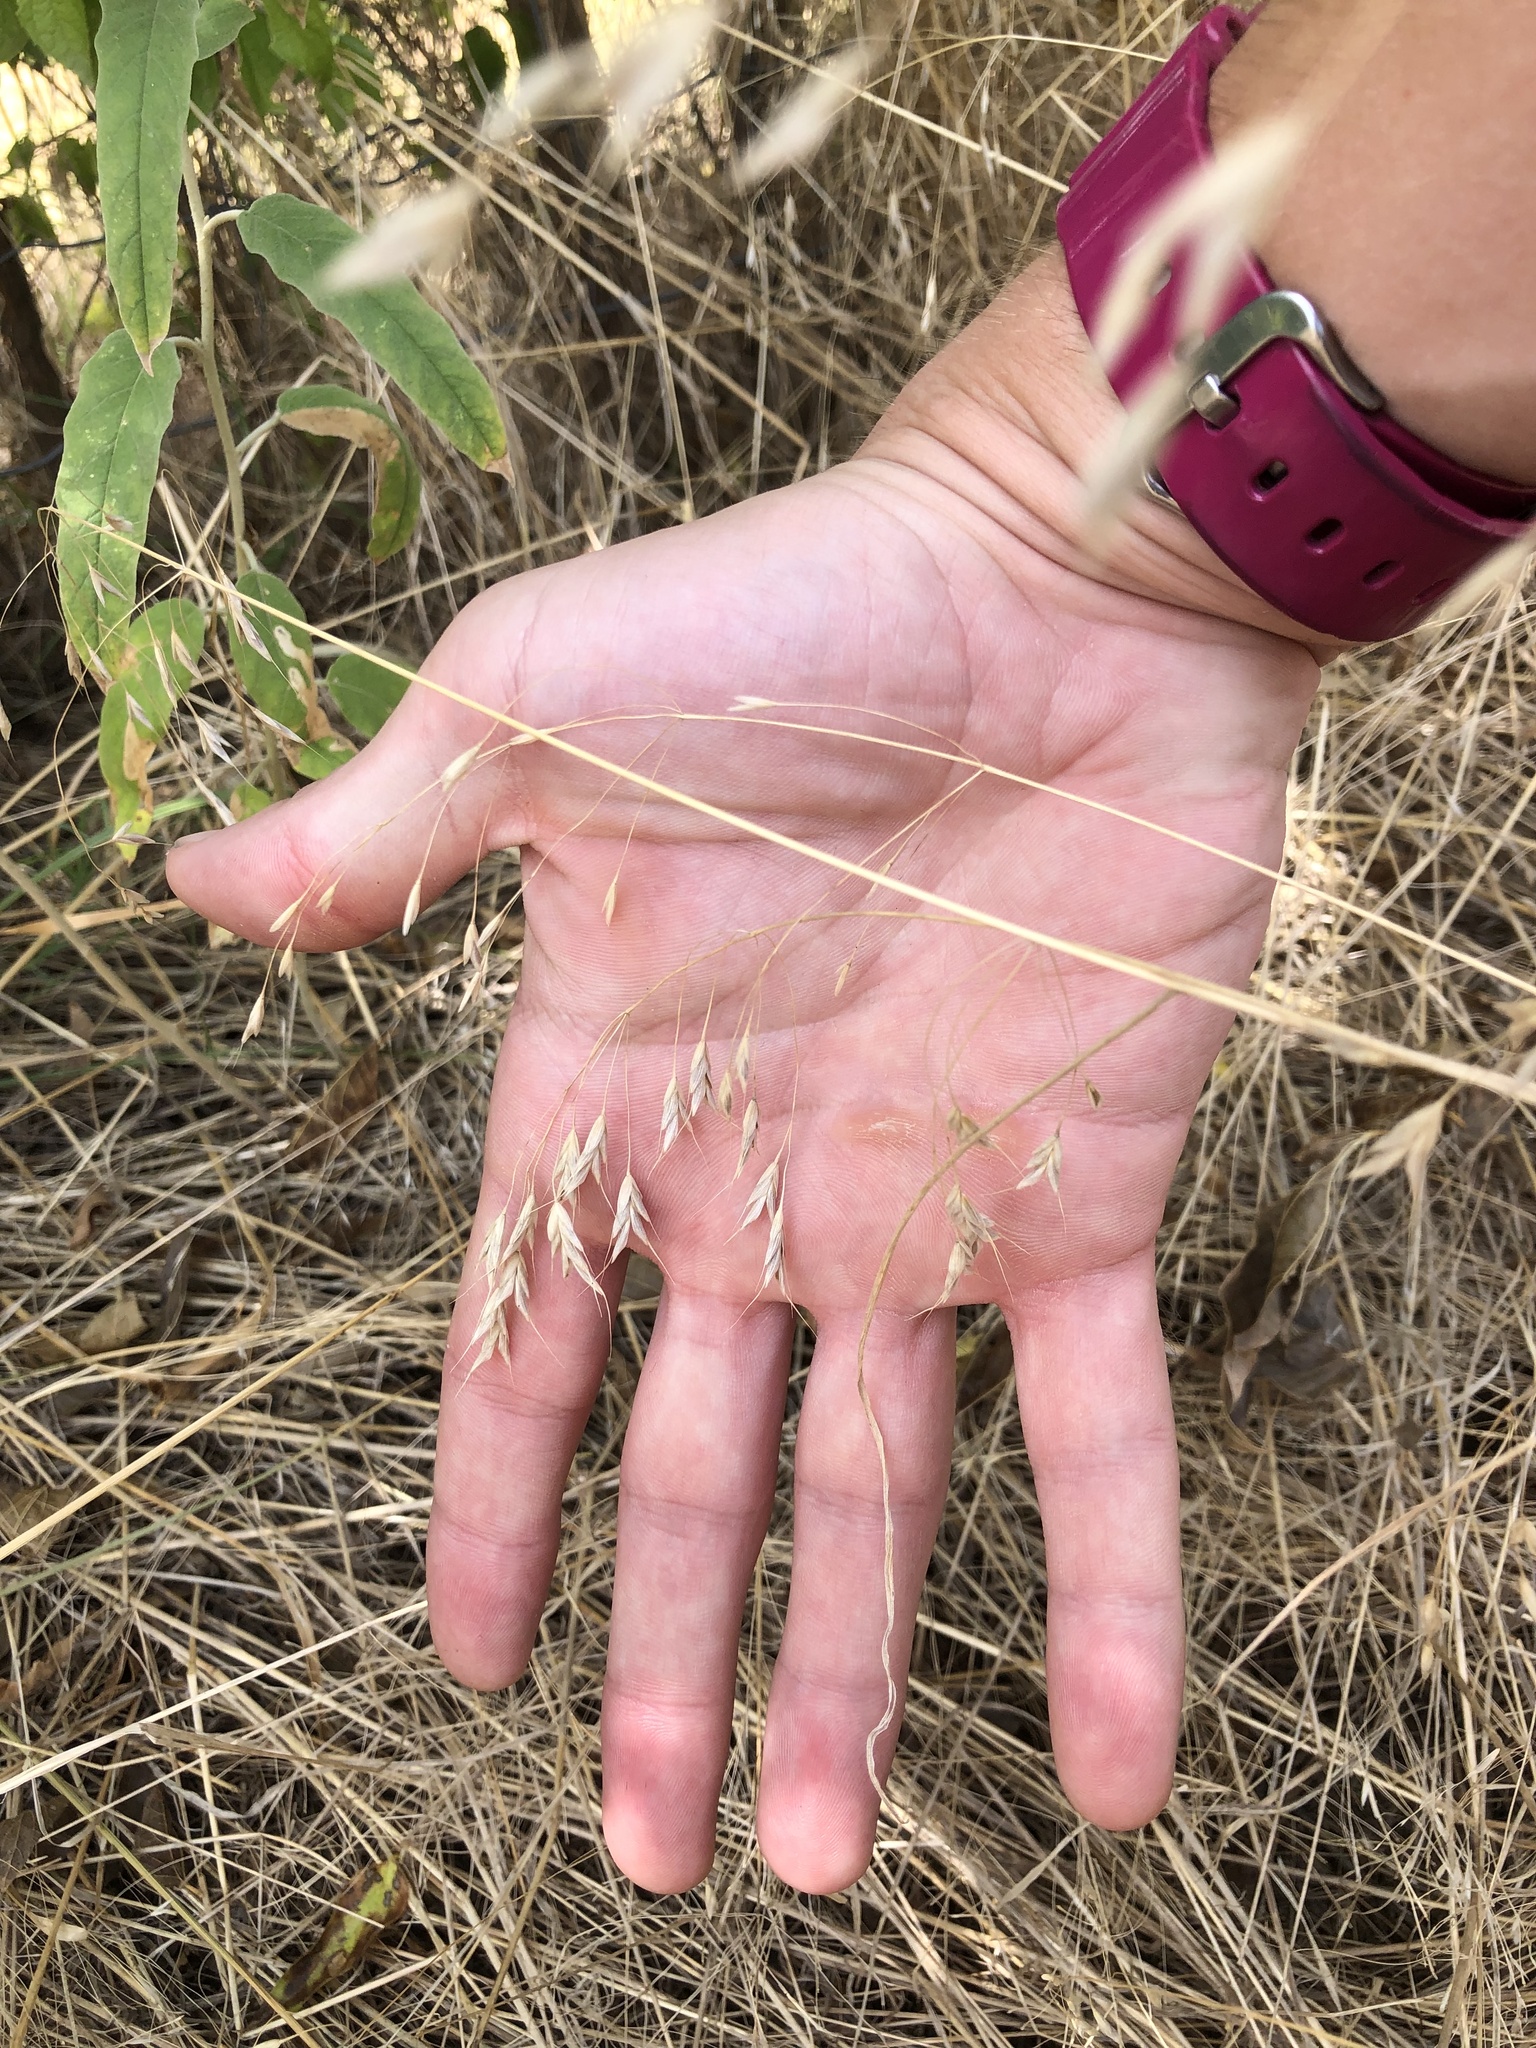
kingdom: Plantae
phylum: Tracheophyta
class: Liliopsida
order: Poales
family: Poaceae
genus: Bromus
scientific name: Bromus japonicus
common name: Japanese brome
